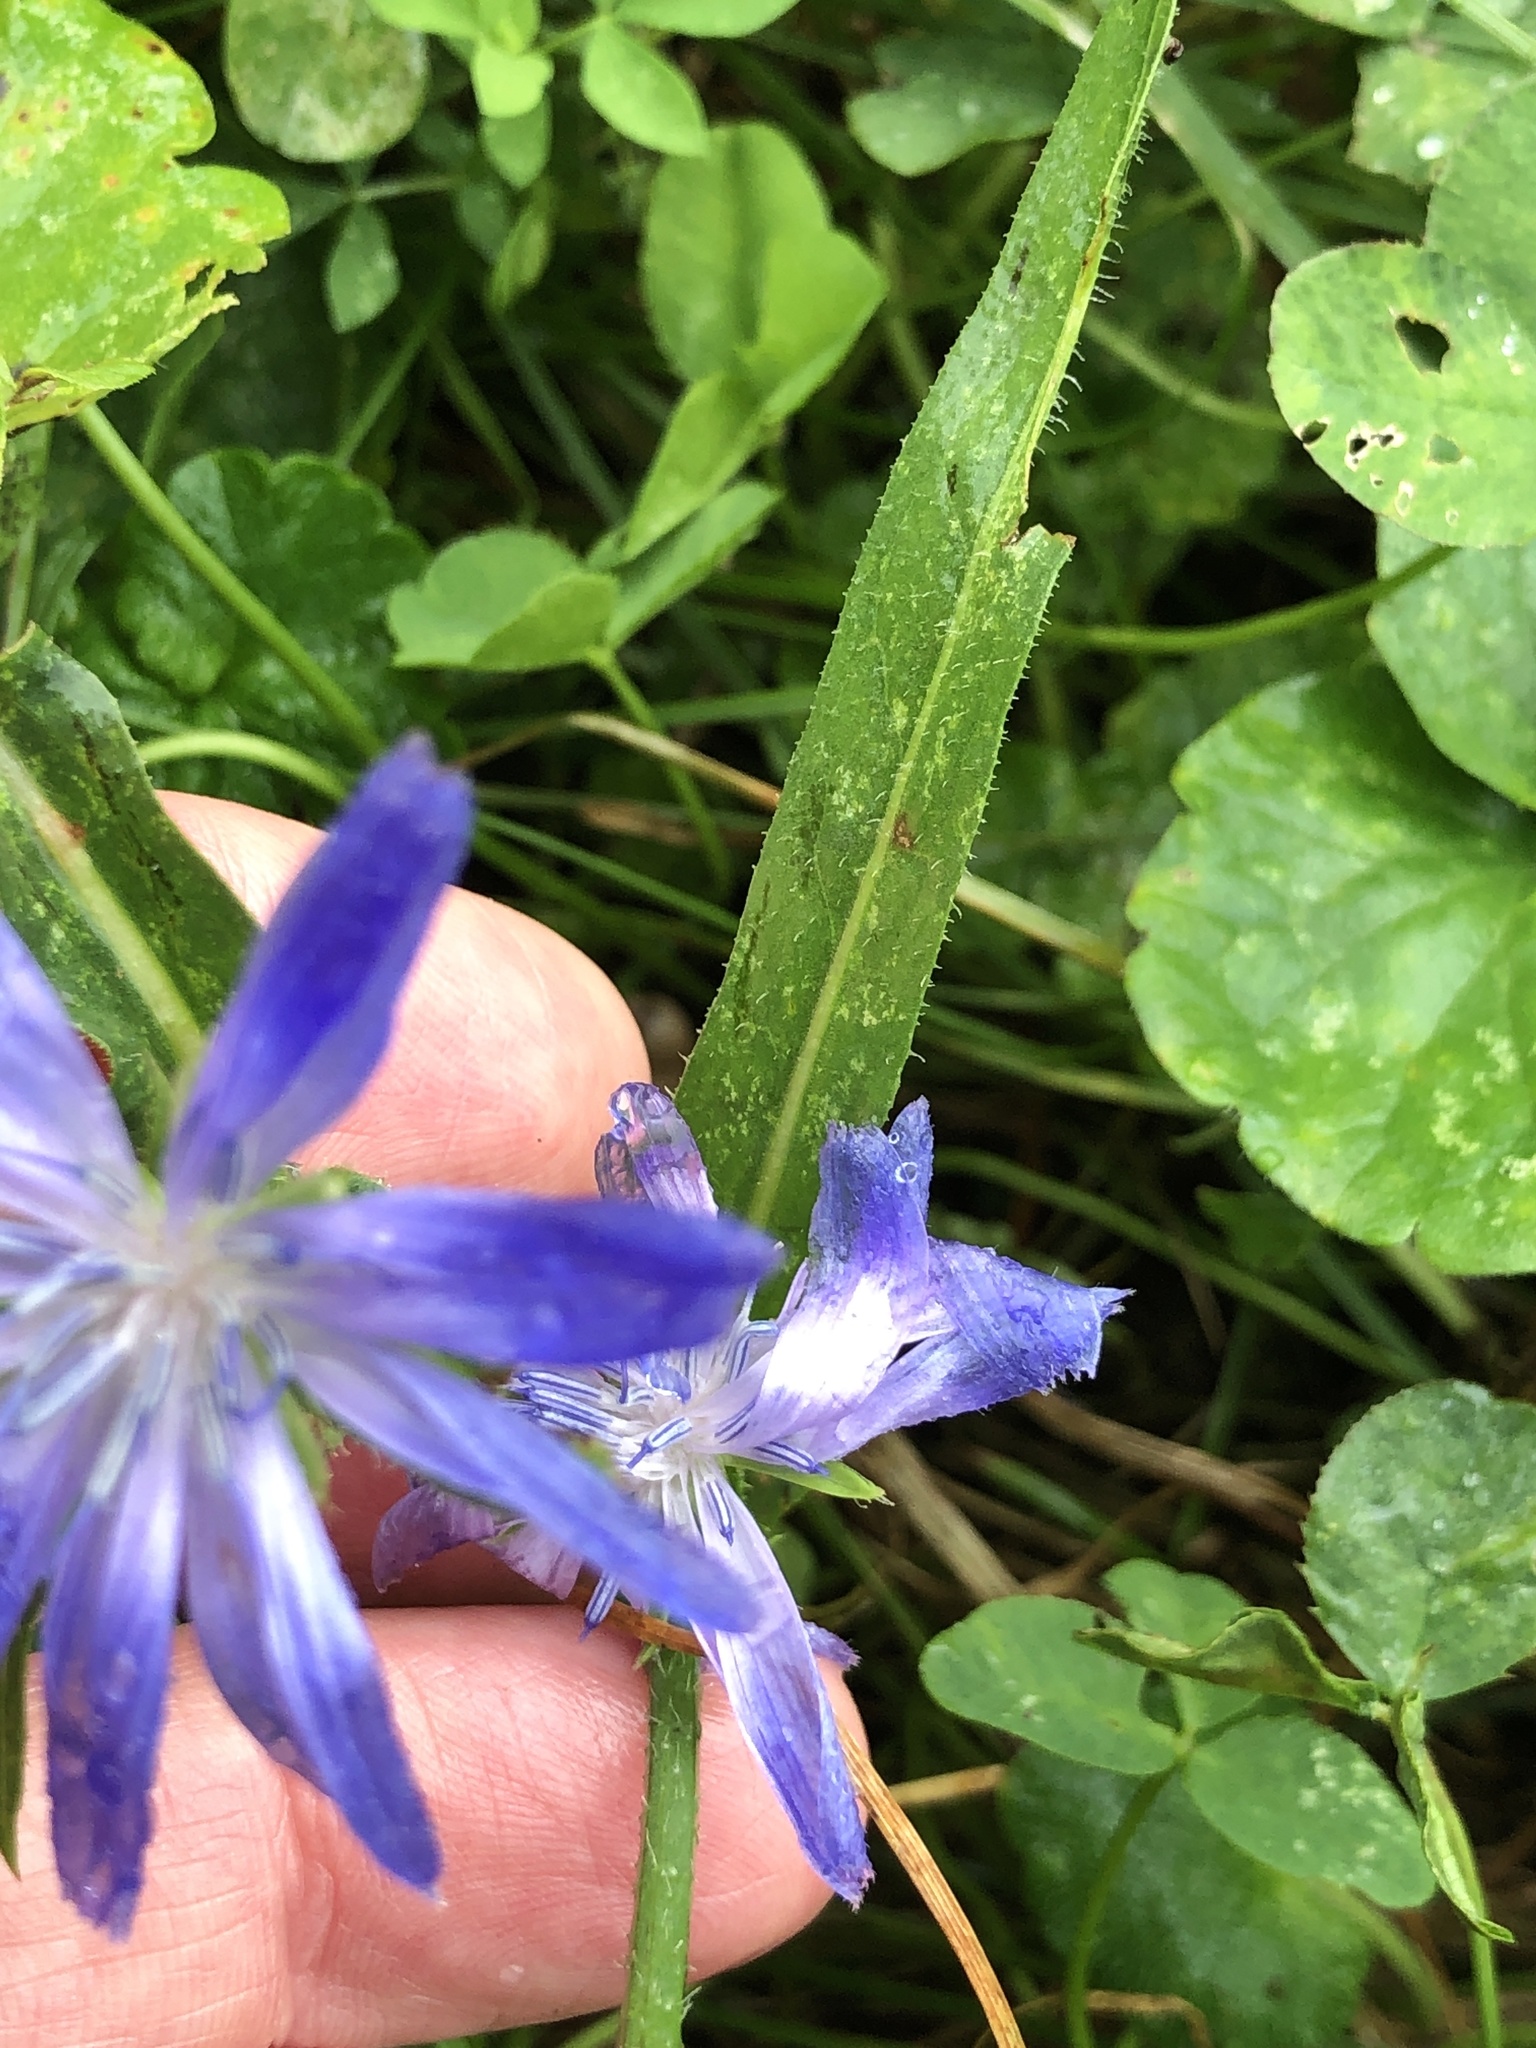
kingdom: Plantae
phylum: Tracheophyta
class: Magnoliopsida
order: Asterales
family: Asteraceae
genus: Cichorium
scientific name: Cichorium intybus
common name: Chicory
